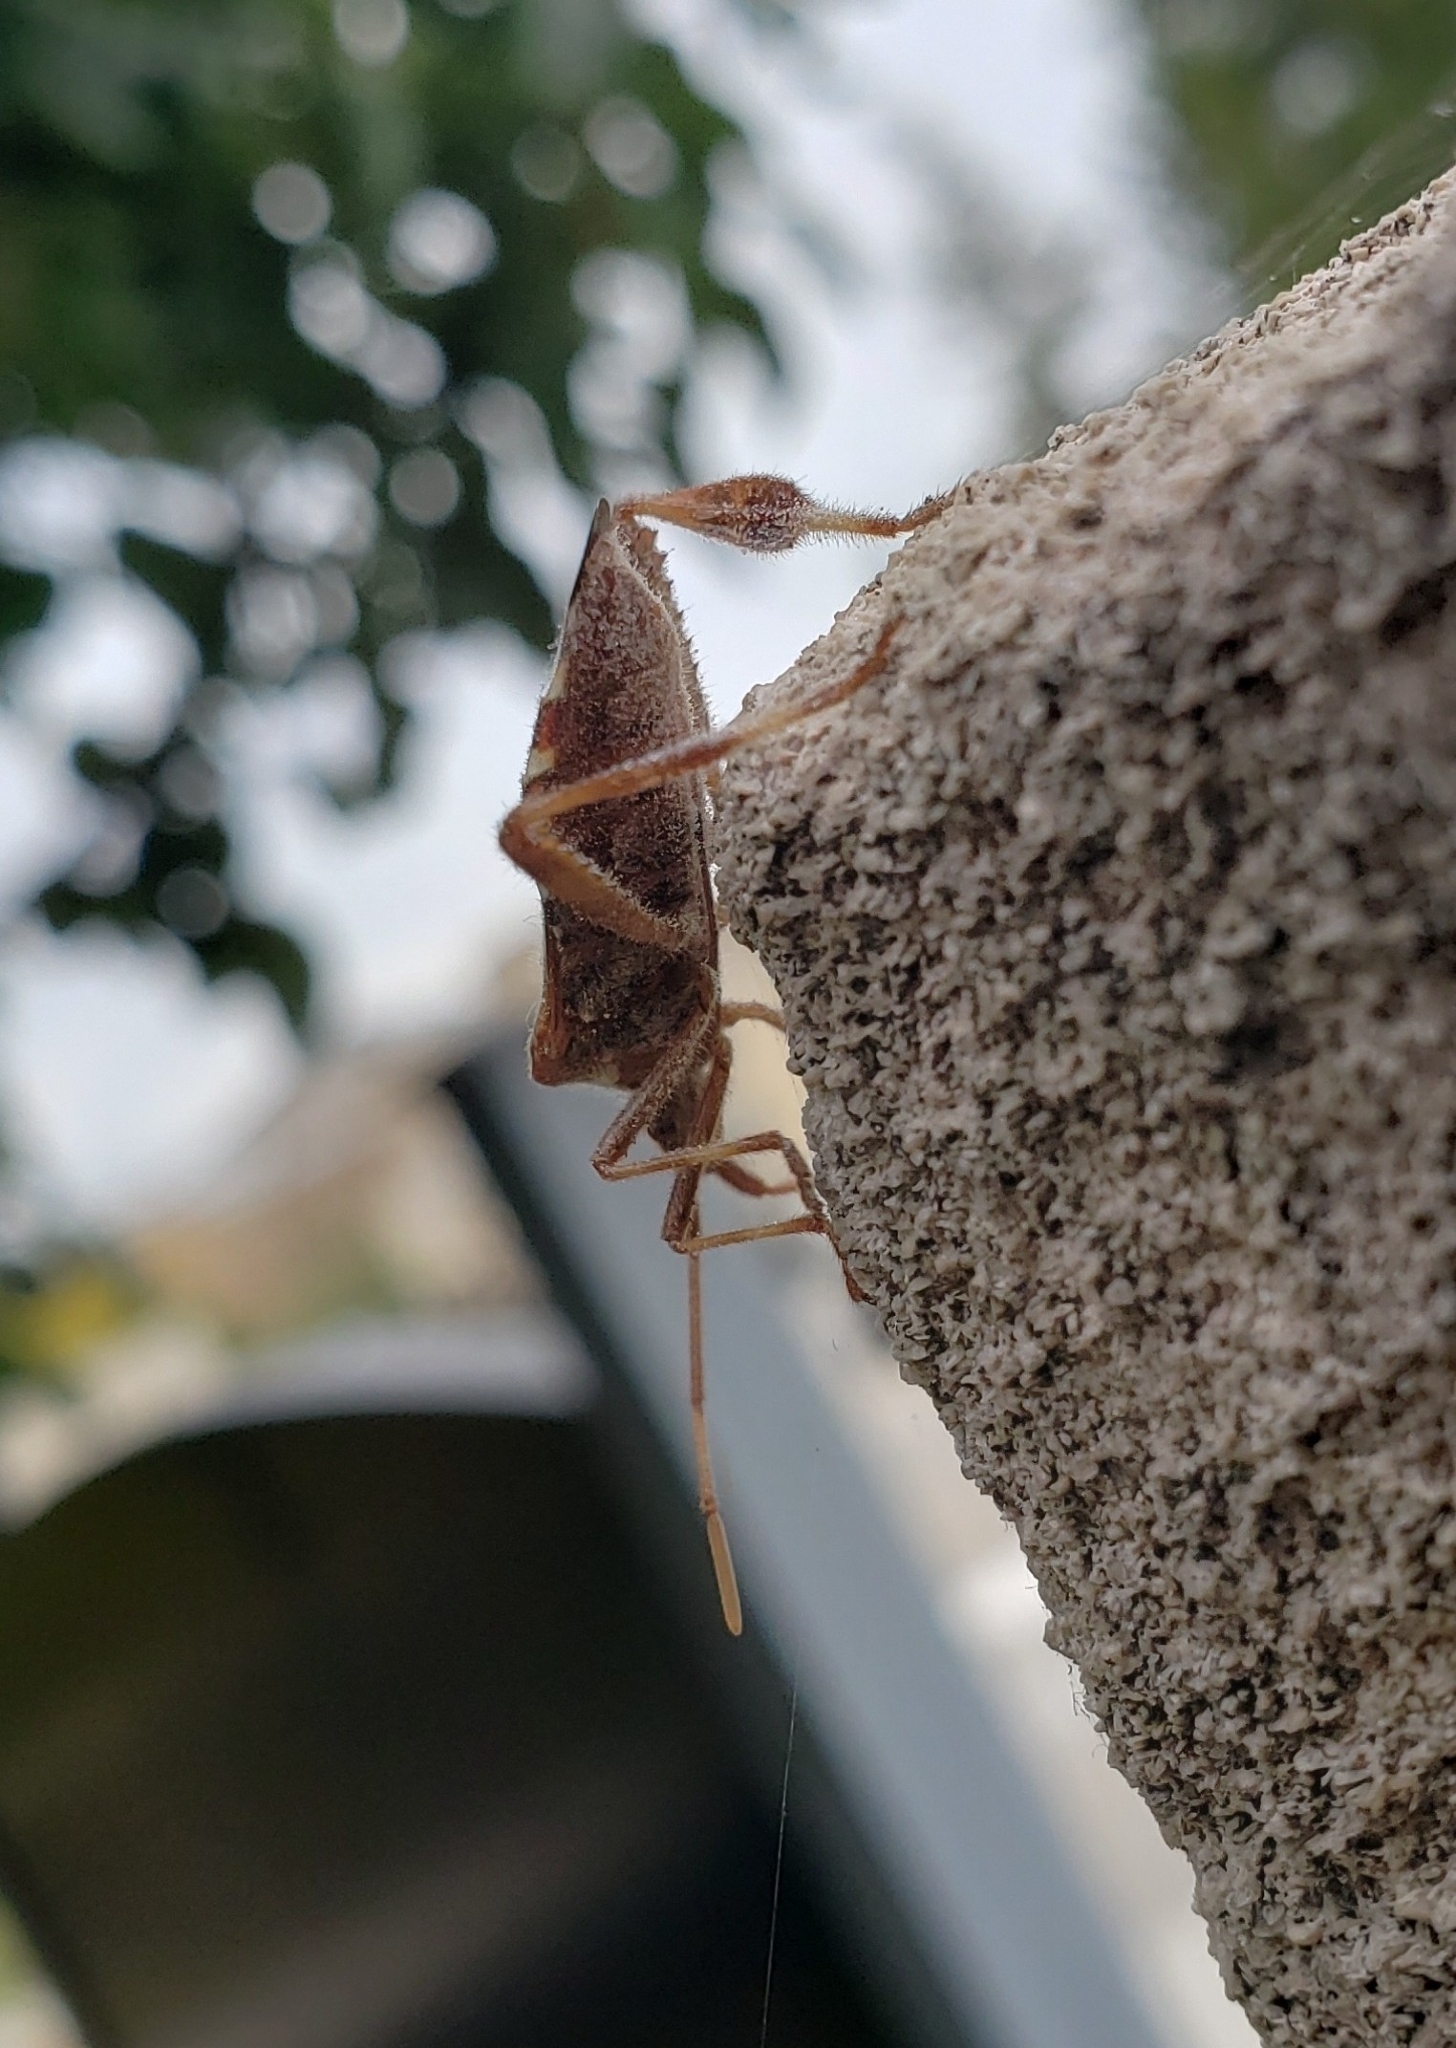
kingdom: Animalia
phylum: Arthropoda
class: Insecta
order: Hemiptera
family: Coreidae
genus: Leptoglossus
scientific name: Leptoglossus occidentalis
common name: Western conifer-seed bug
